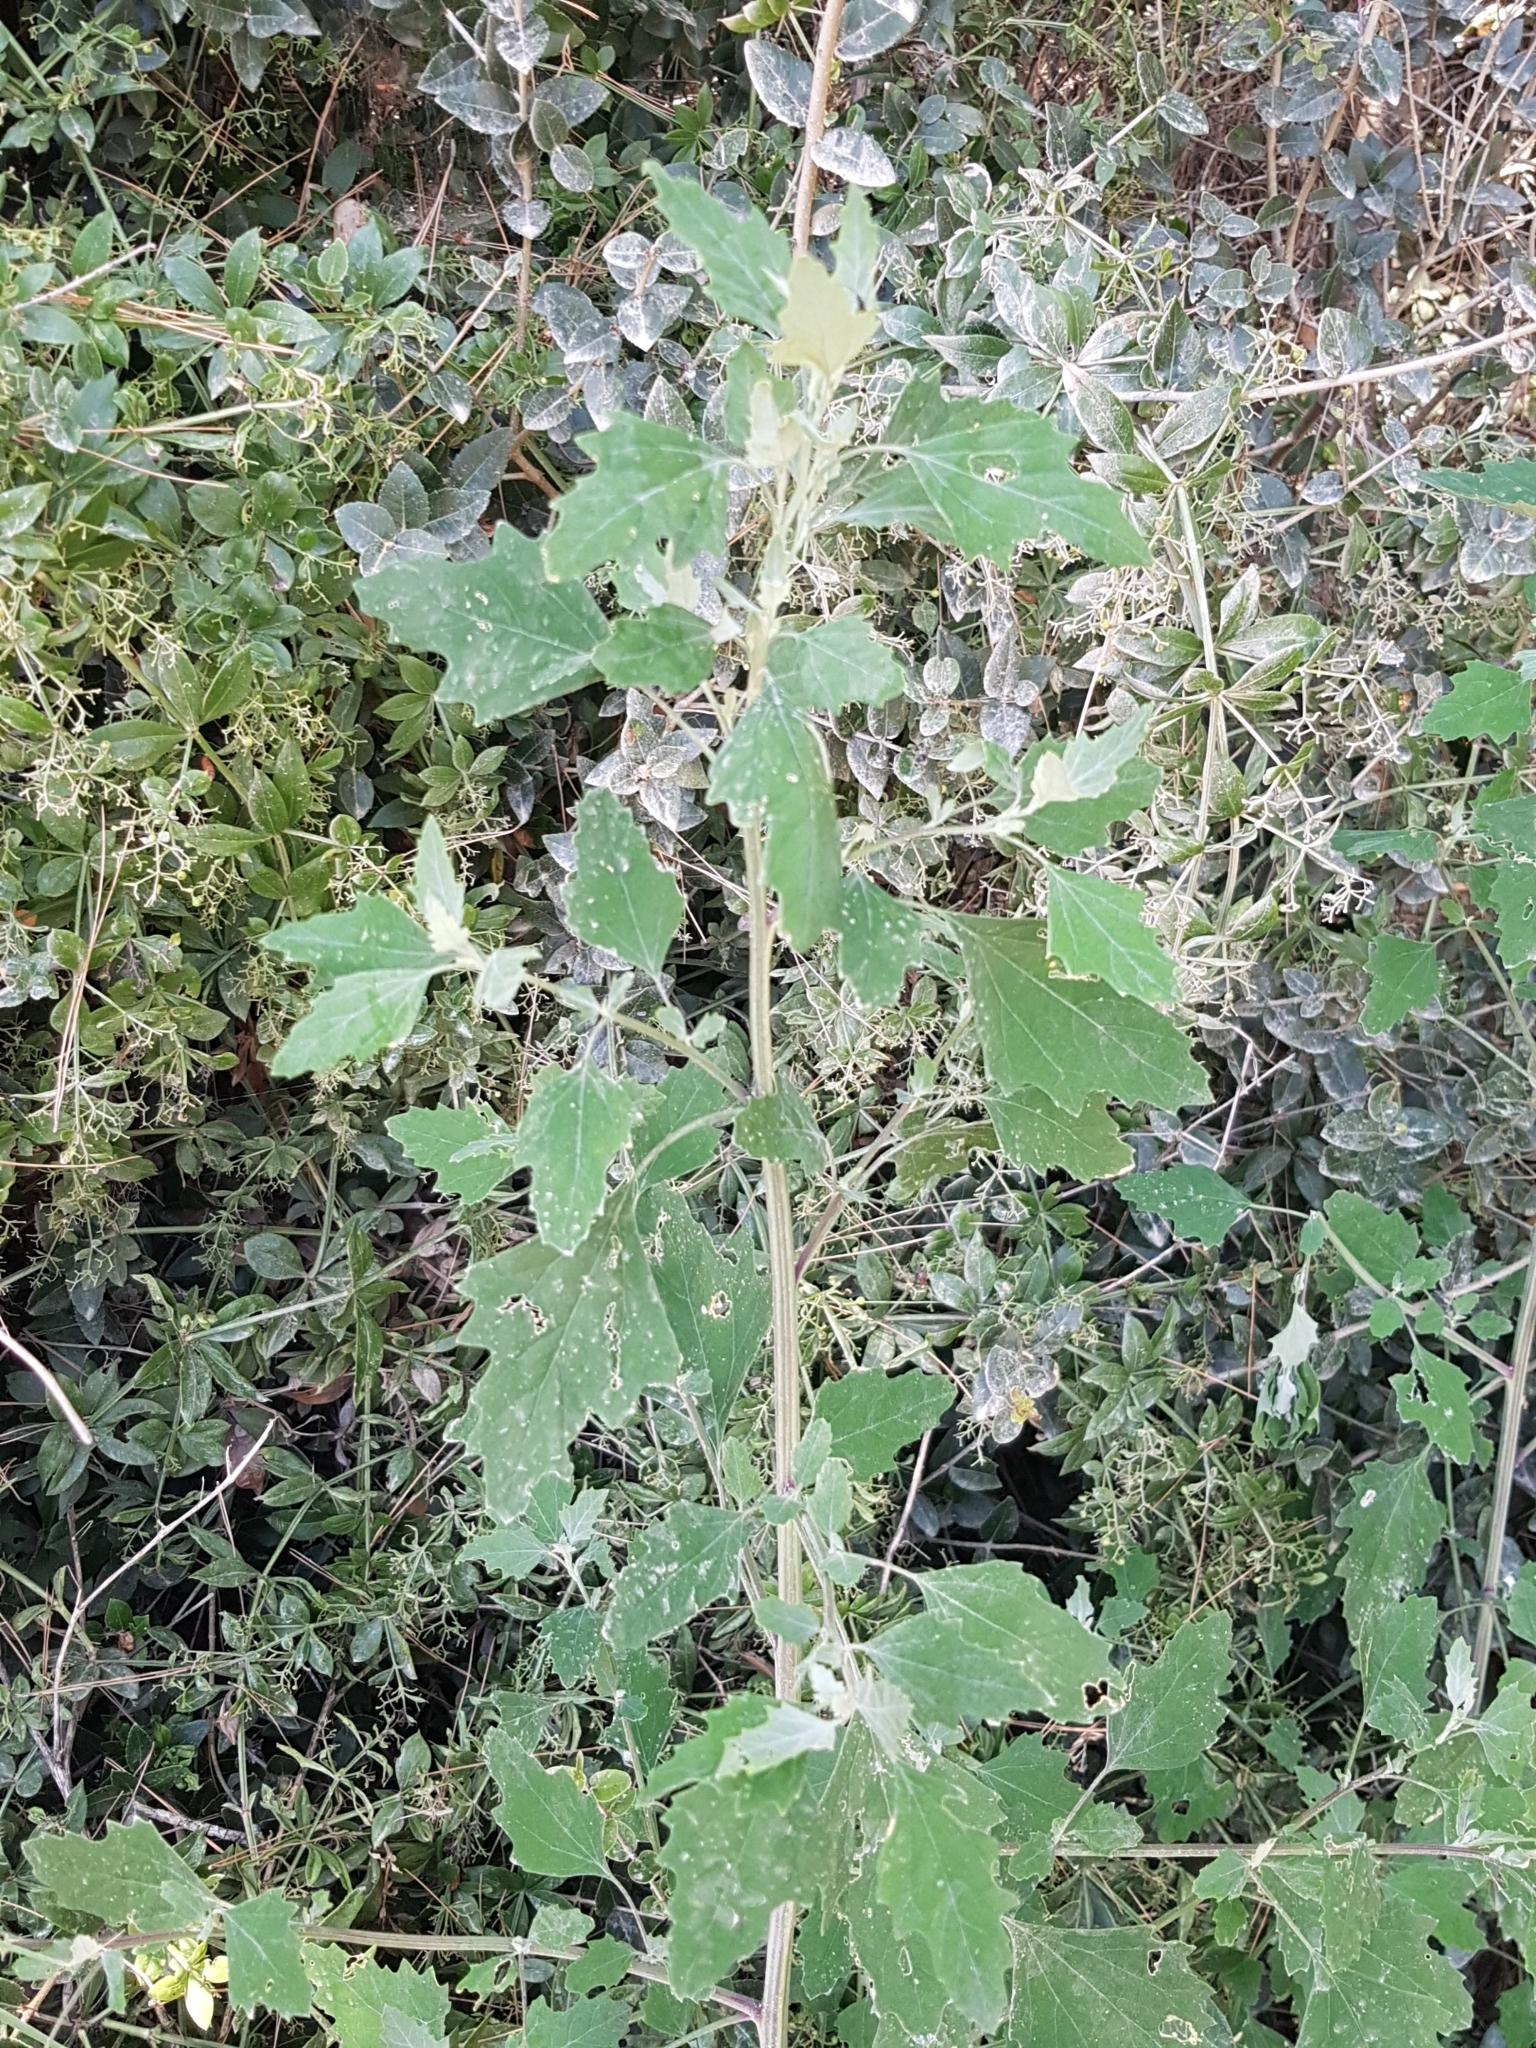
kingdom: Plantae
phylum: Tracheophyta
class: Magnoliopsida
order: Caryophyllales
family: Amaranthaceae
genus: Chenopodium
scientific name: Chenopodium album
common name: Fat-hen
